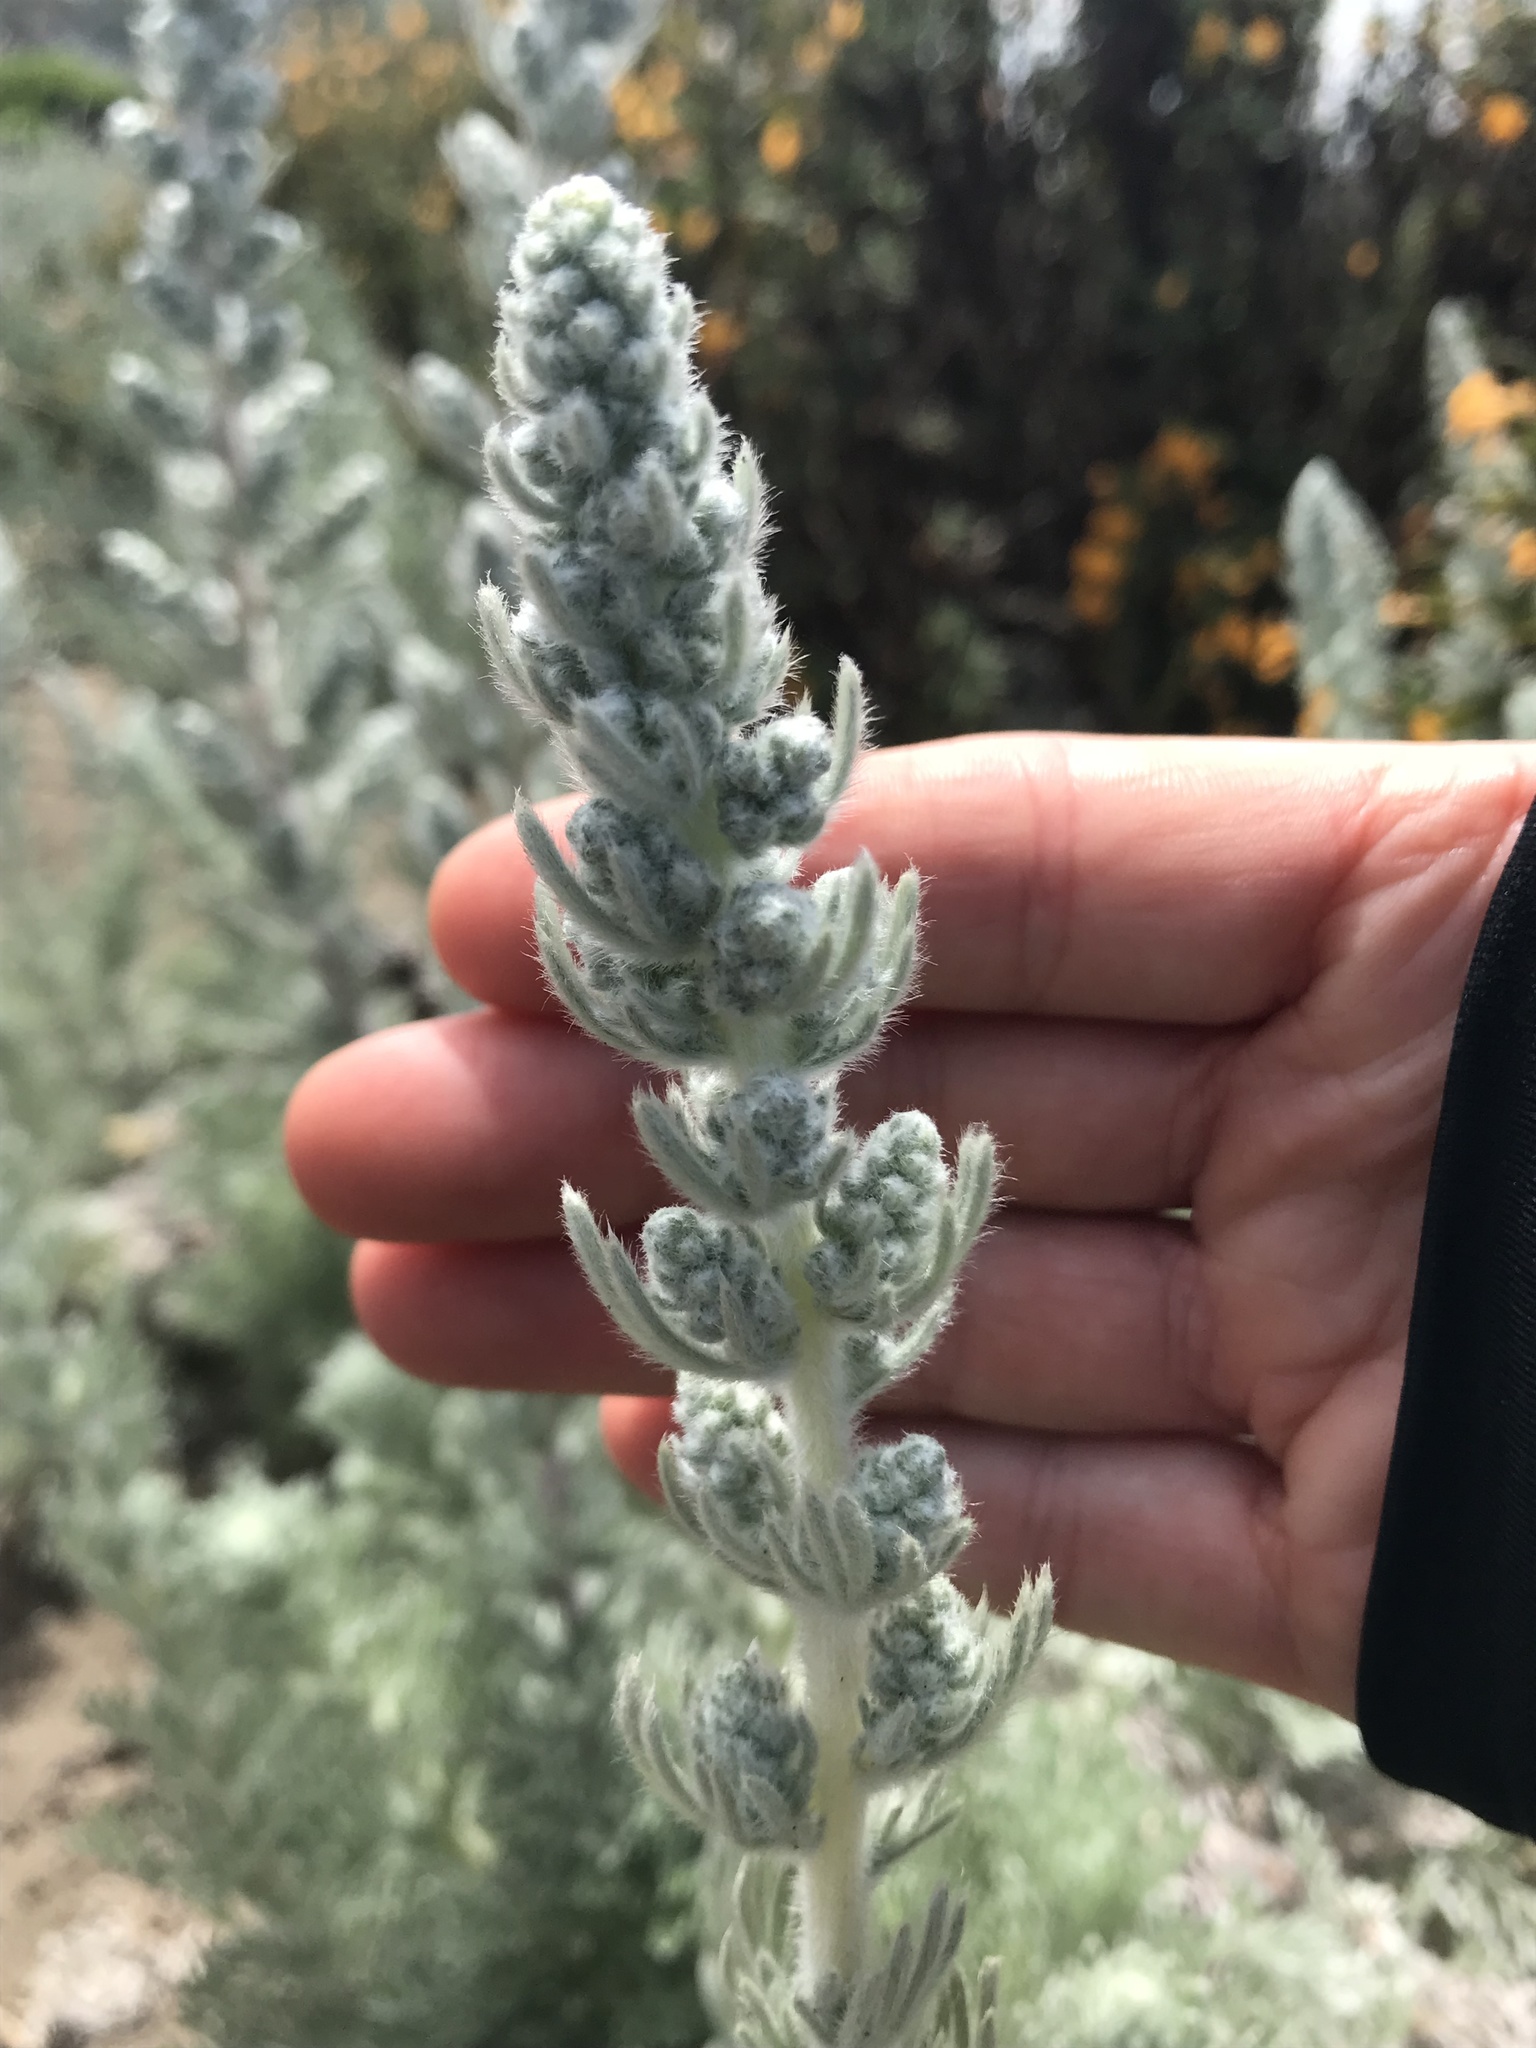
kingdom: Plantae
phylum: Tracheophyta
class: Magnoliopsida
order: Asterales
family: Asteraceae
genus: Artemisia
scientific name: Artemisia pycnocephala
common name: Coastal sagewort
